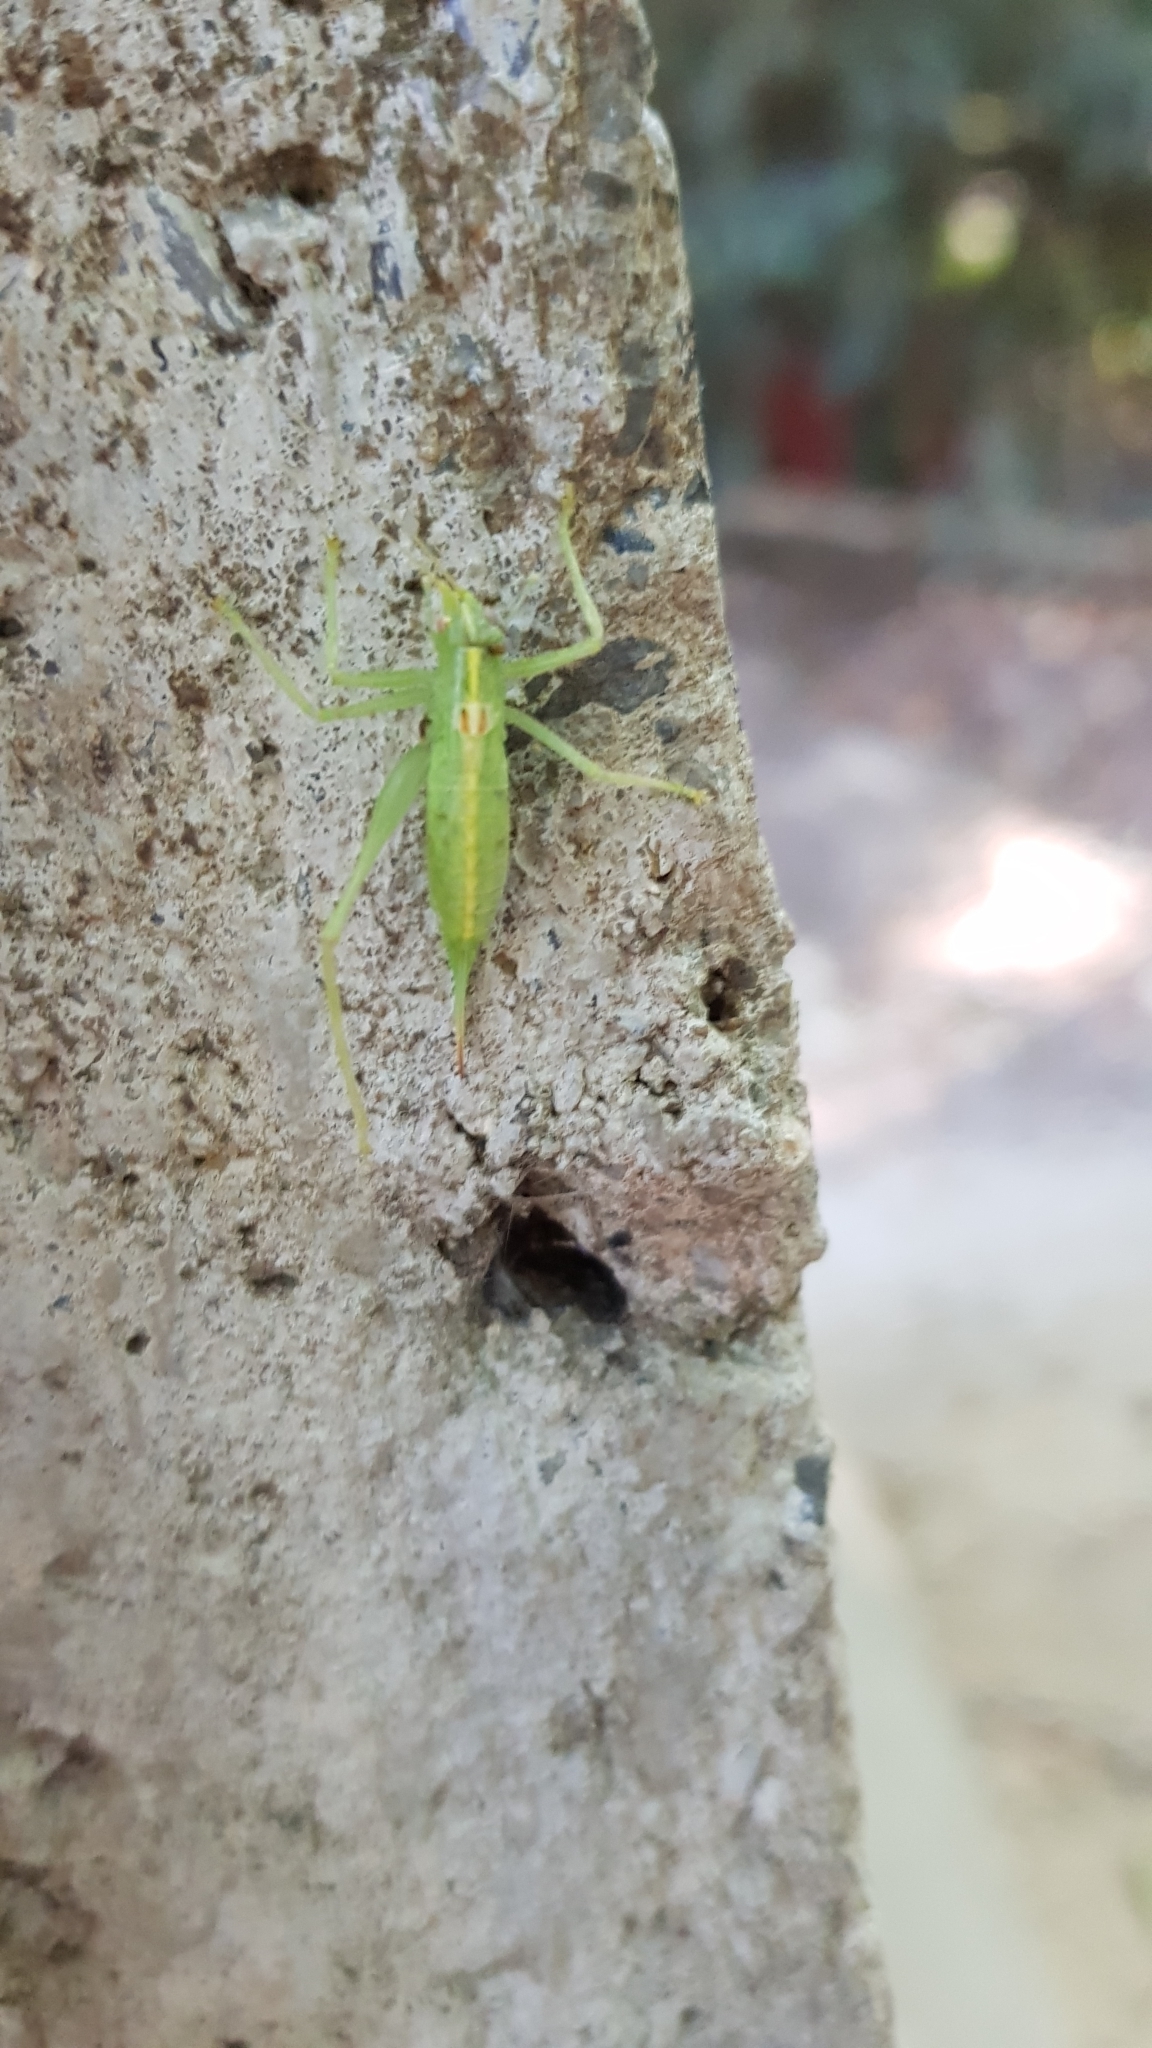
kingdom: Animalia
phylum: Arthropoda
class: Insecta
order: Orthoptera
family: Tettigoniidae
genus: Meconema
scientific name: Meconema meridionale
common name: Southern oak bush-cricket
